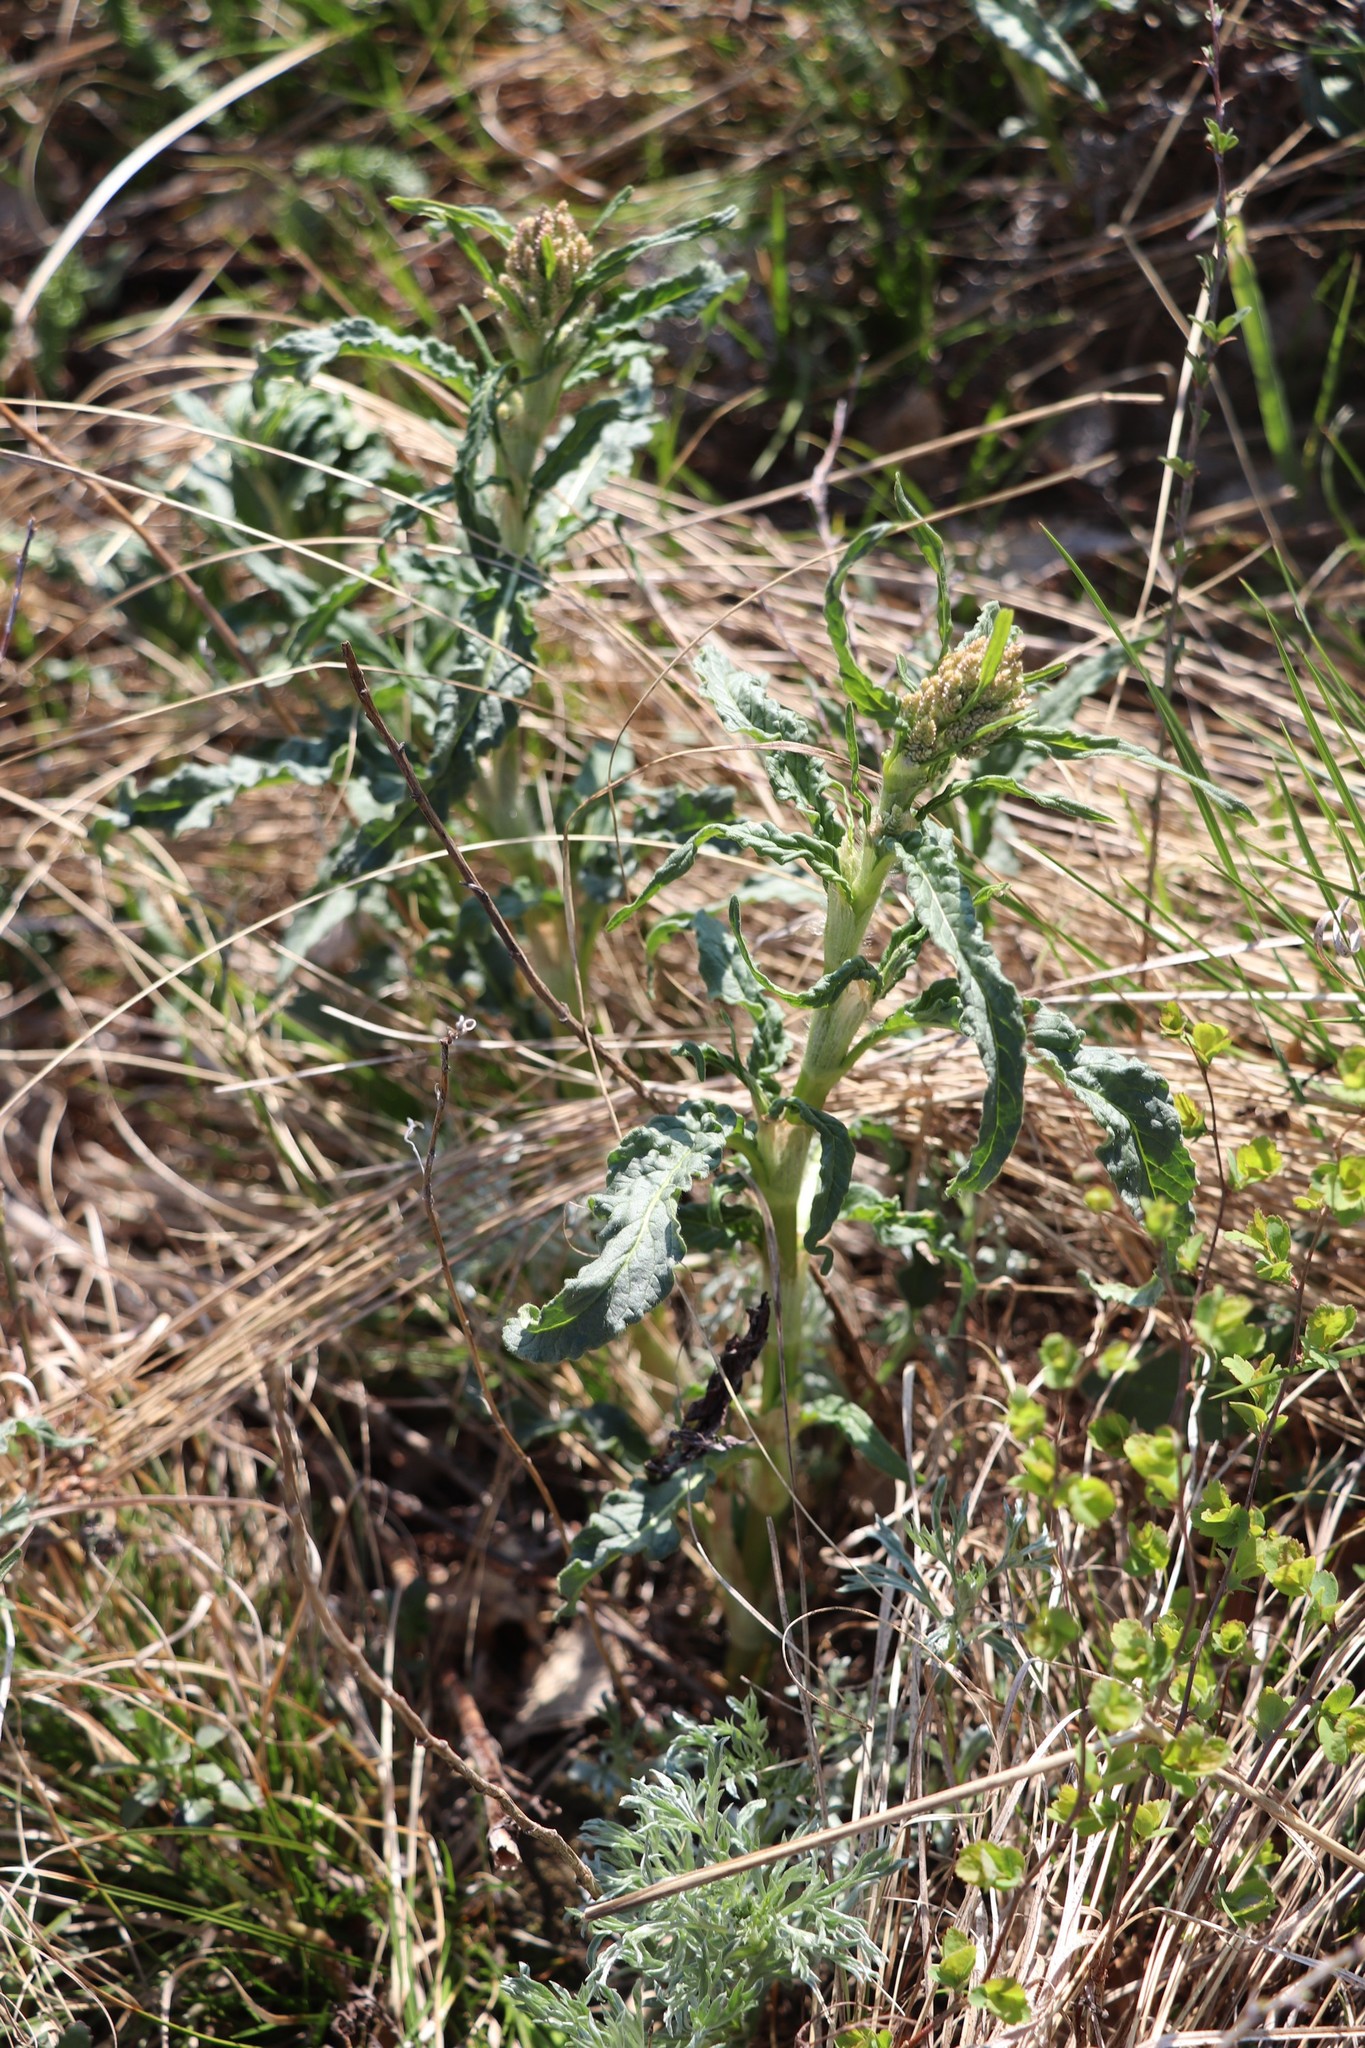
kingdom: Plantae
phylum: Tracheophyta
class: Magnoliopsida
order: Caryophyllales
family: Polygonaceae
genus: Koenigia
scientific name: Koenigia alpina
